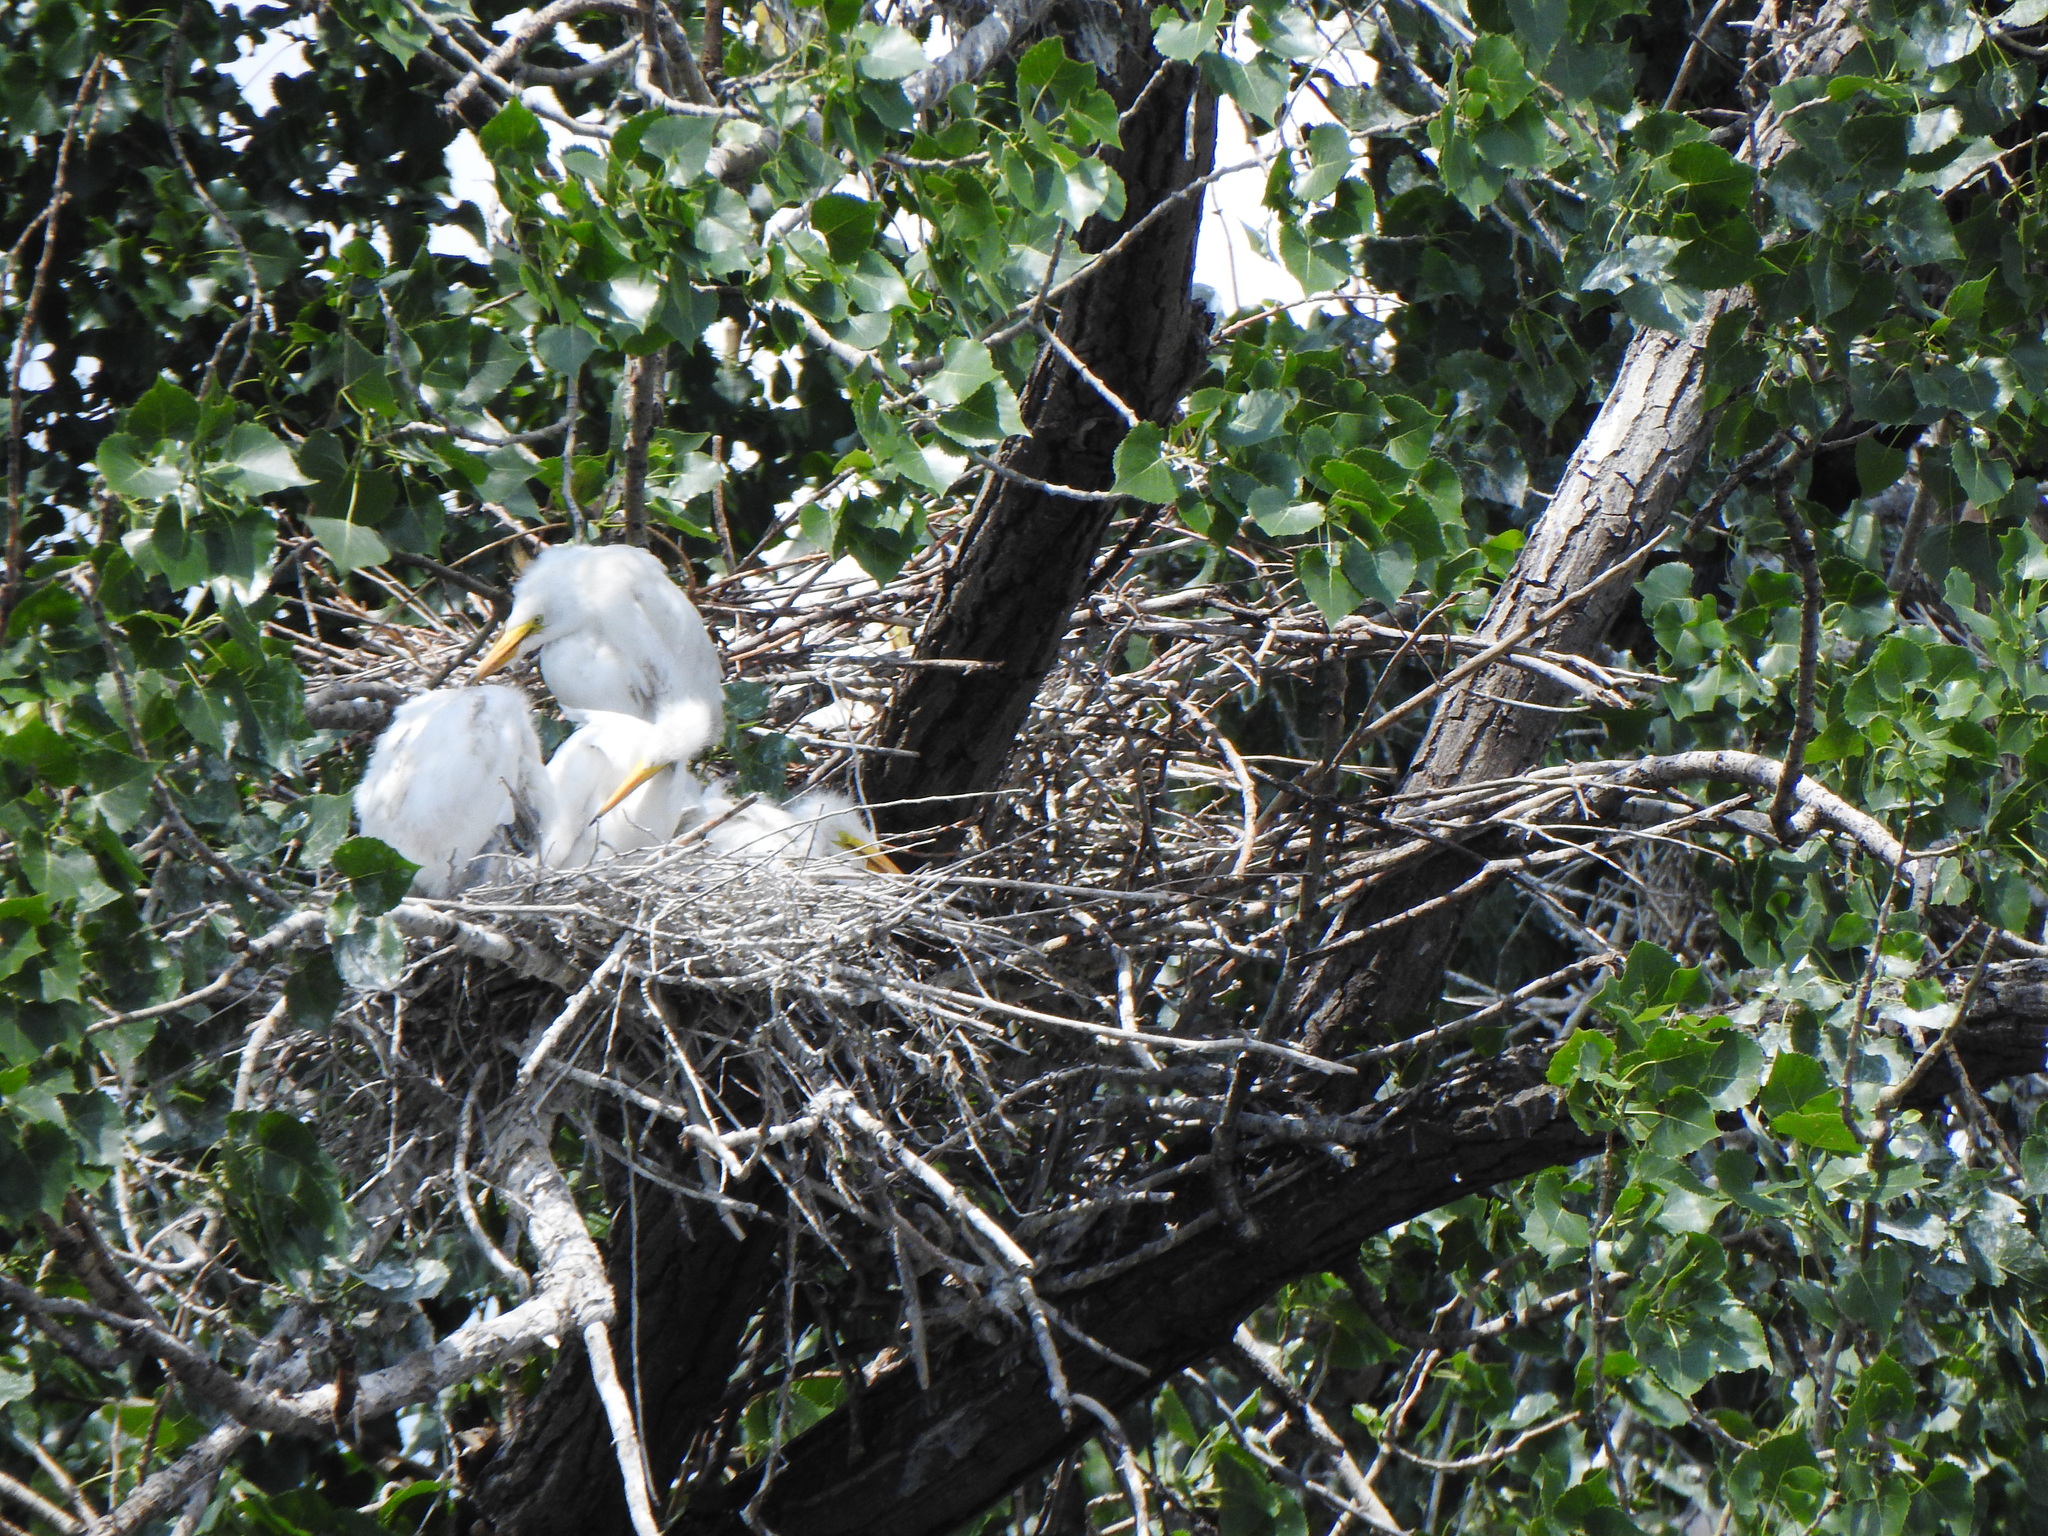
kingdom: Animalia
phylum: Chordata
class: Aves
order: Pelecaniformes
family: Ardeidae
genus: Ardea
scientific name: Ardea alba
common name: Great egret
